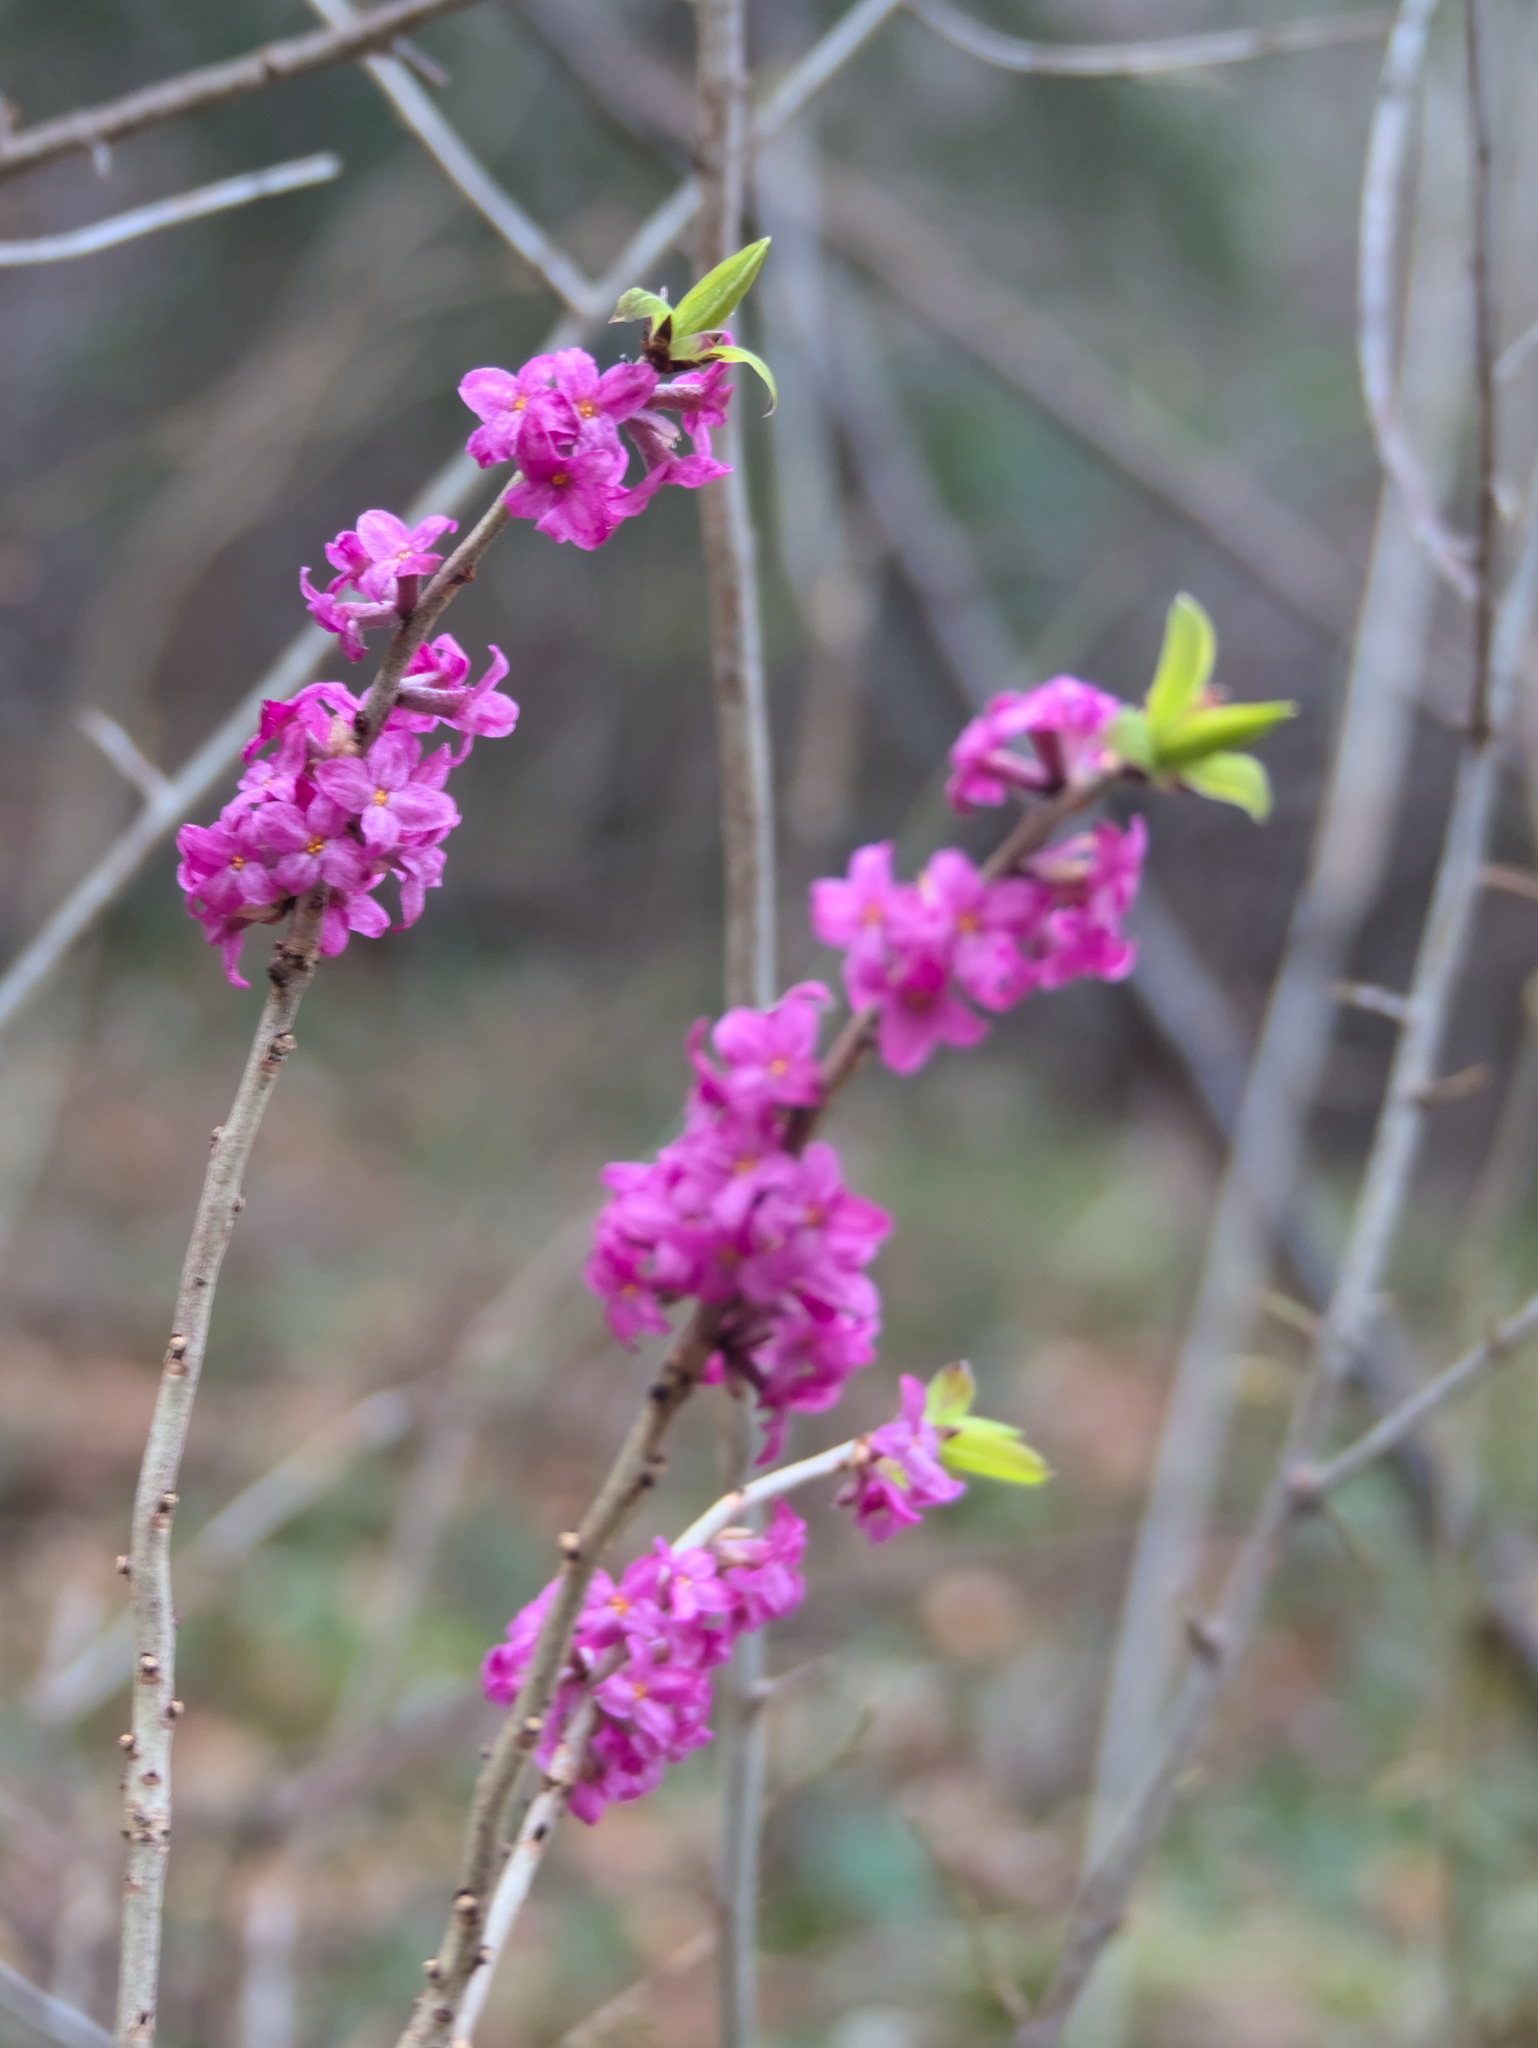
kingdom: Plantae
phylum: Tracheophyta
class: Magnoliopsida
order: Malvales
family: Thymelaeaceae
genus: Daphne
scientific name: Daphne mezereum
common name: Mezereon
